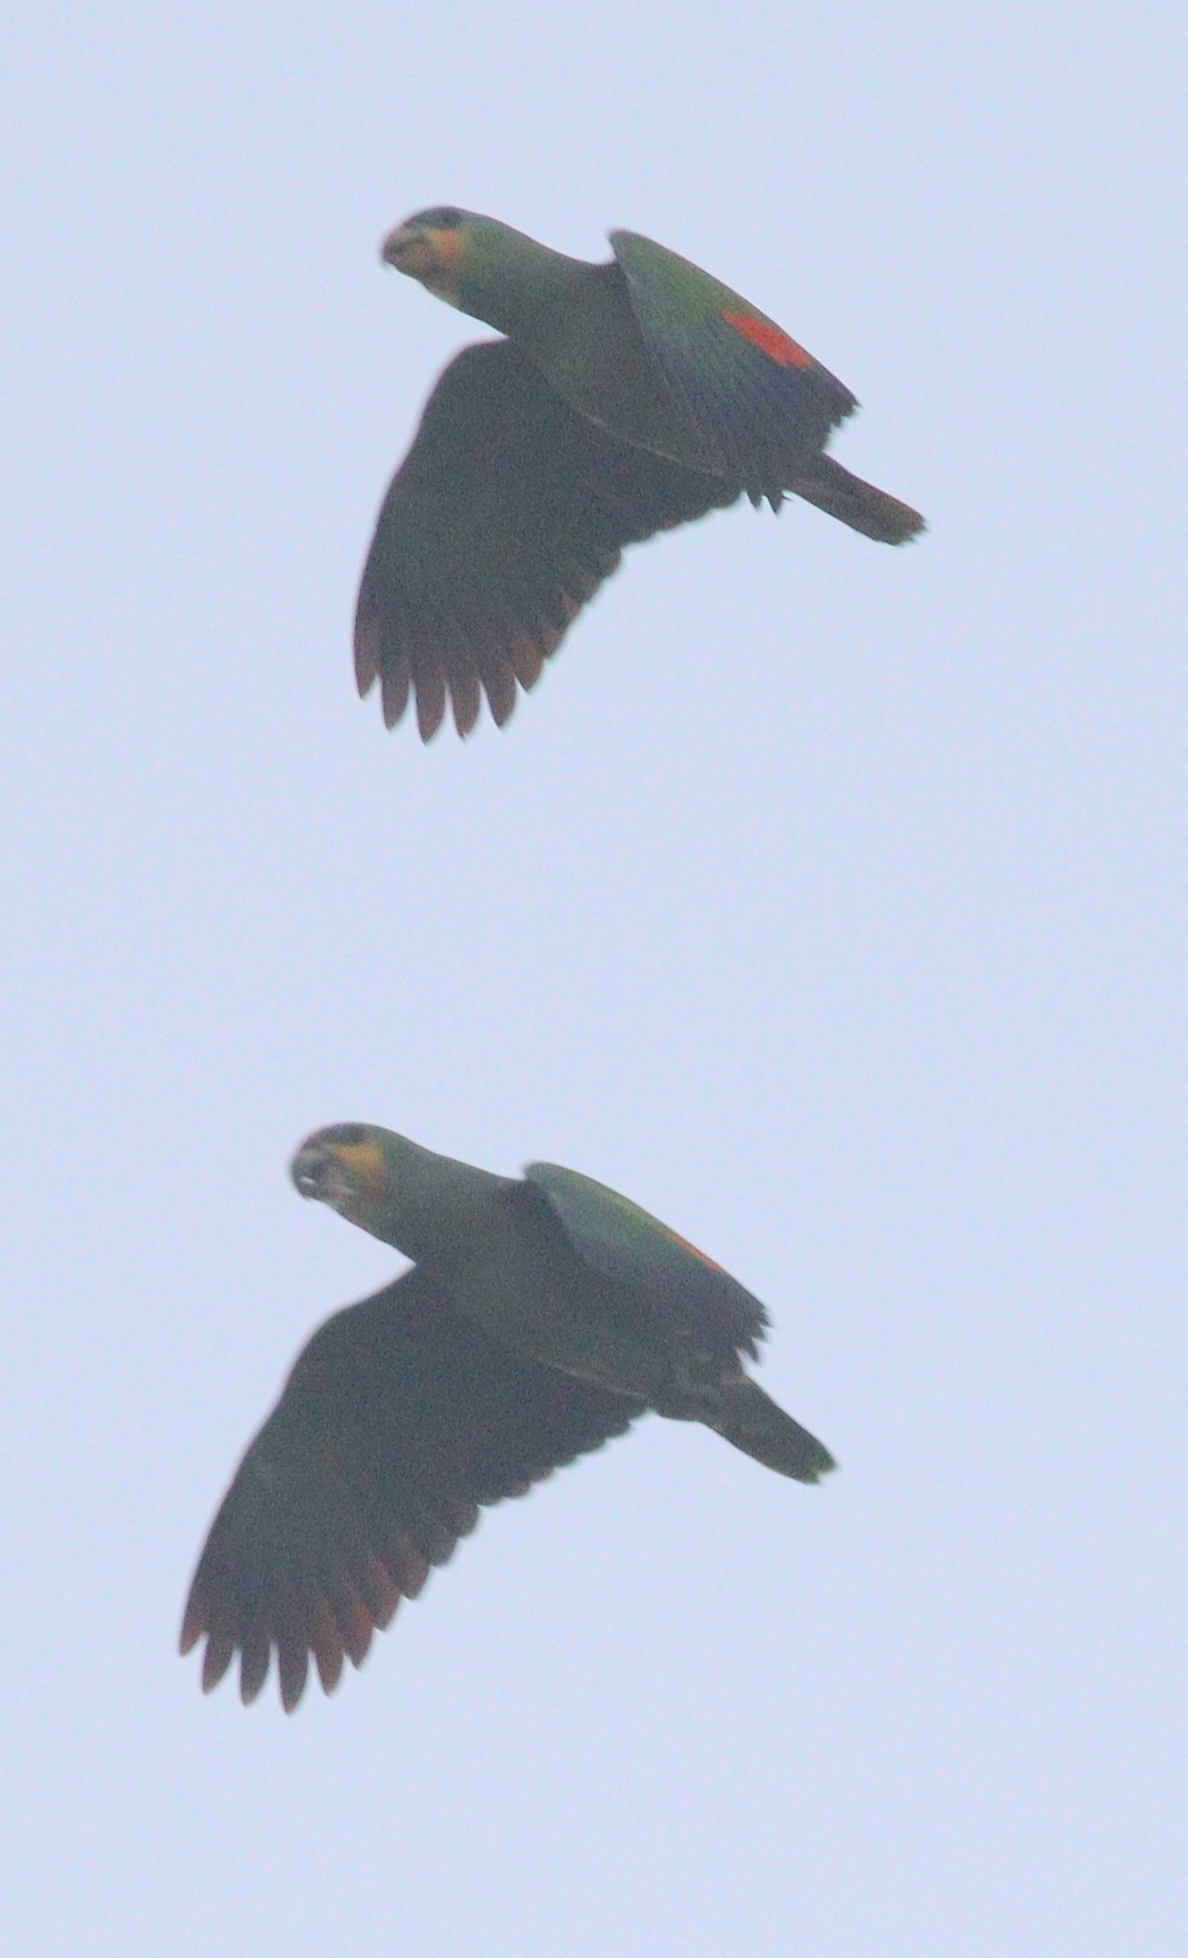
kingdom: Animalia
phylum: Chordata
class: Aves
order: Psittaciformes
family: Psittacidae
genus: Amazona
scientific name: Amazona amazonica
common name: Orange-winged amazon
